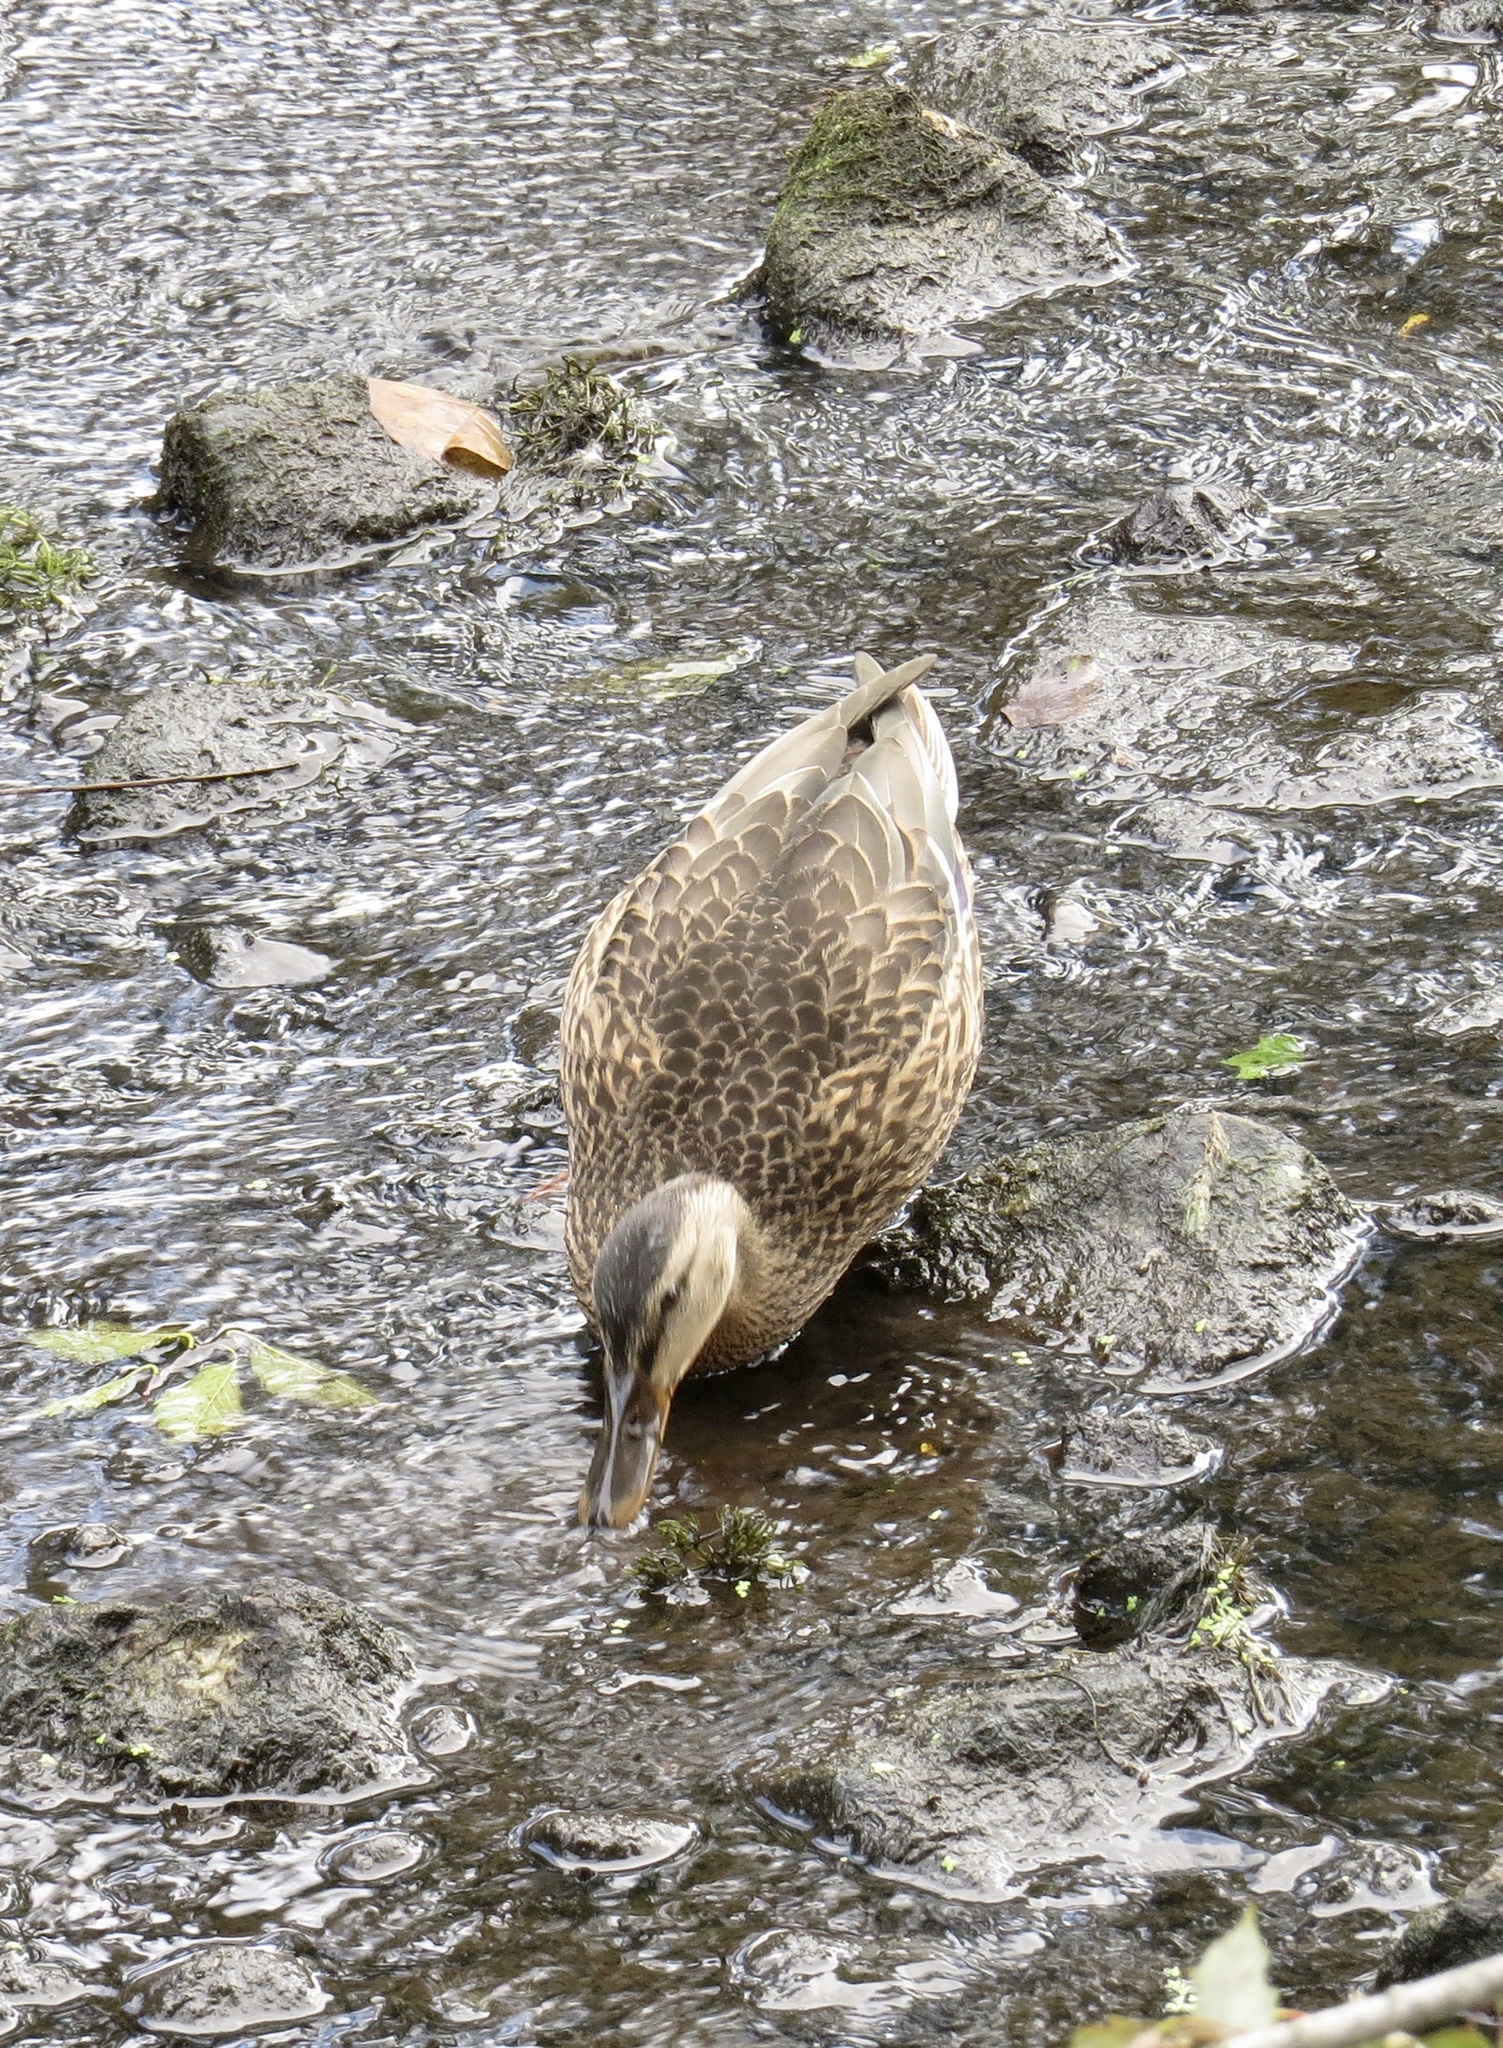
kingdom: Animalia
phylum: Chordata
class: Aves
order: Anseriformes
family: Anatidae
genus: Anas
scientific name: Anas platyrhynchos
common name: Mallard
